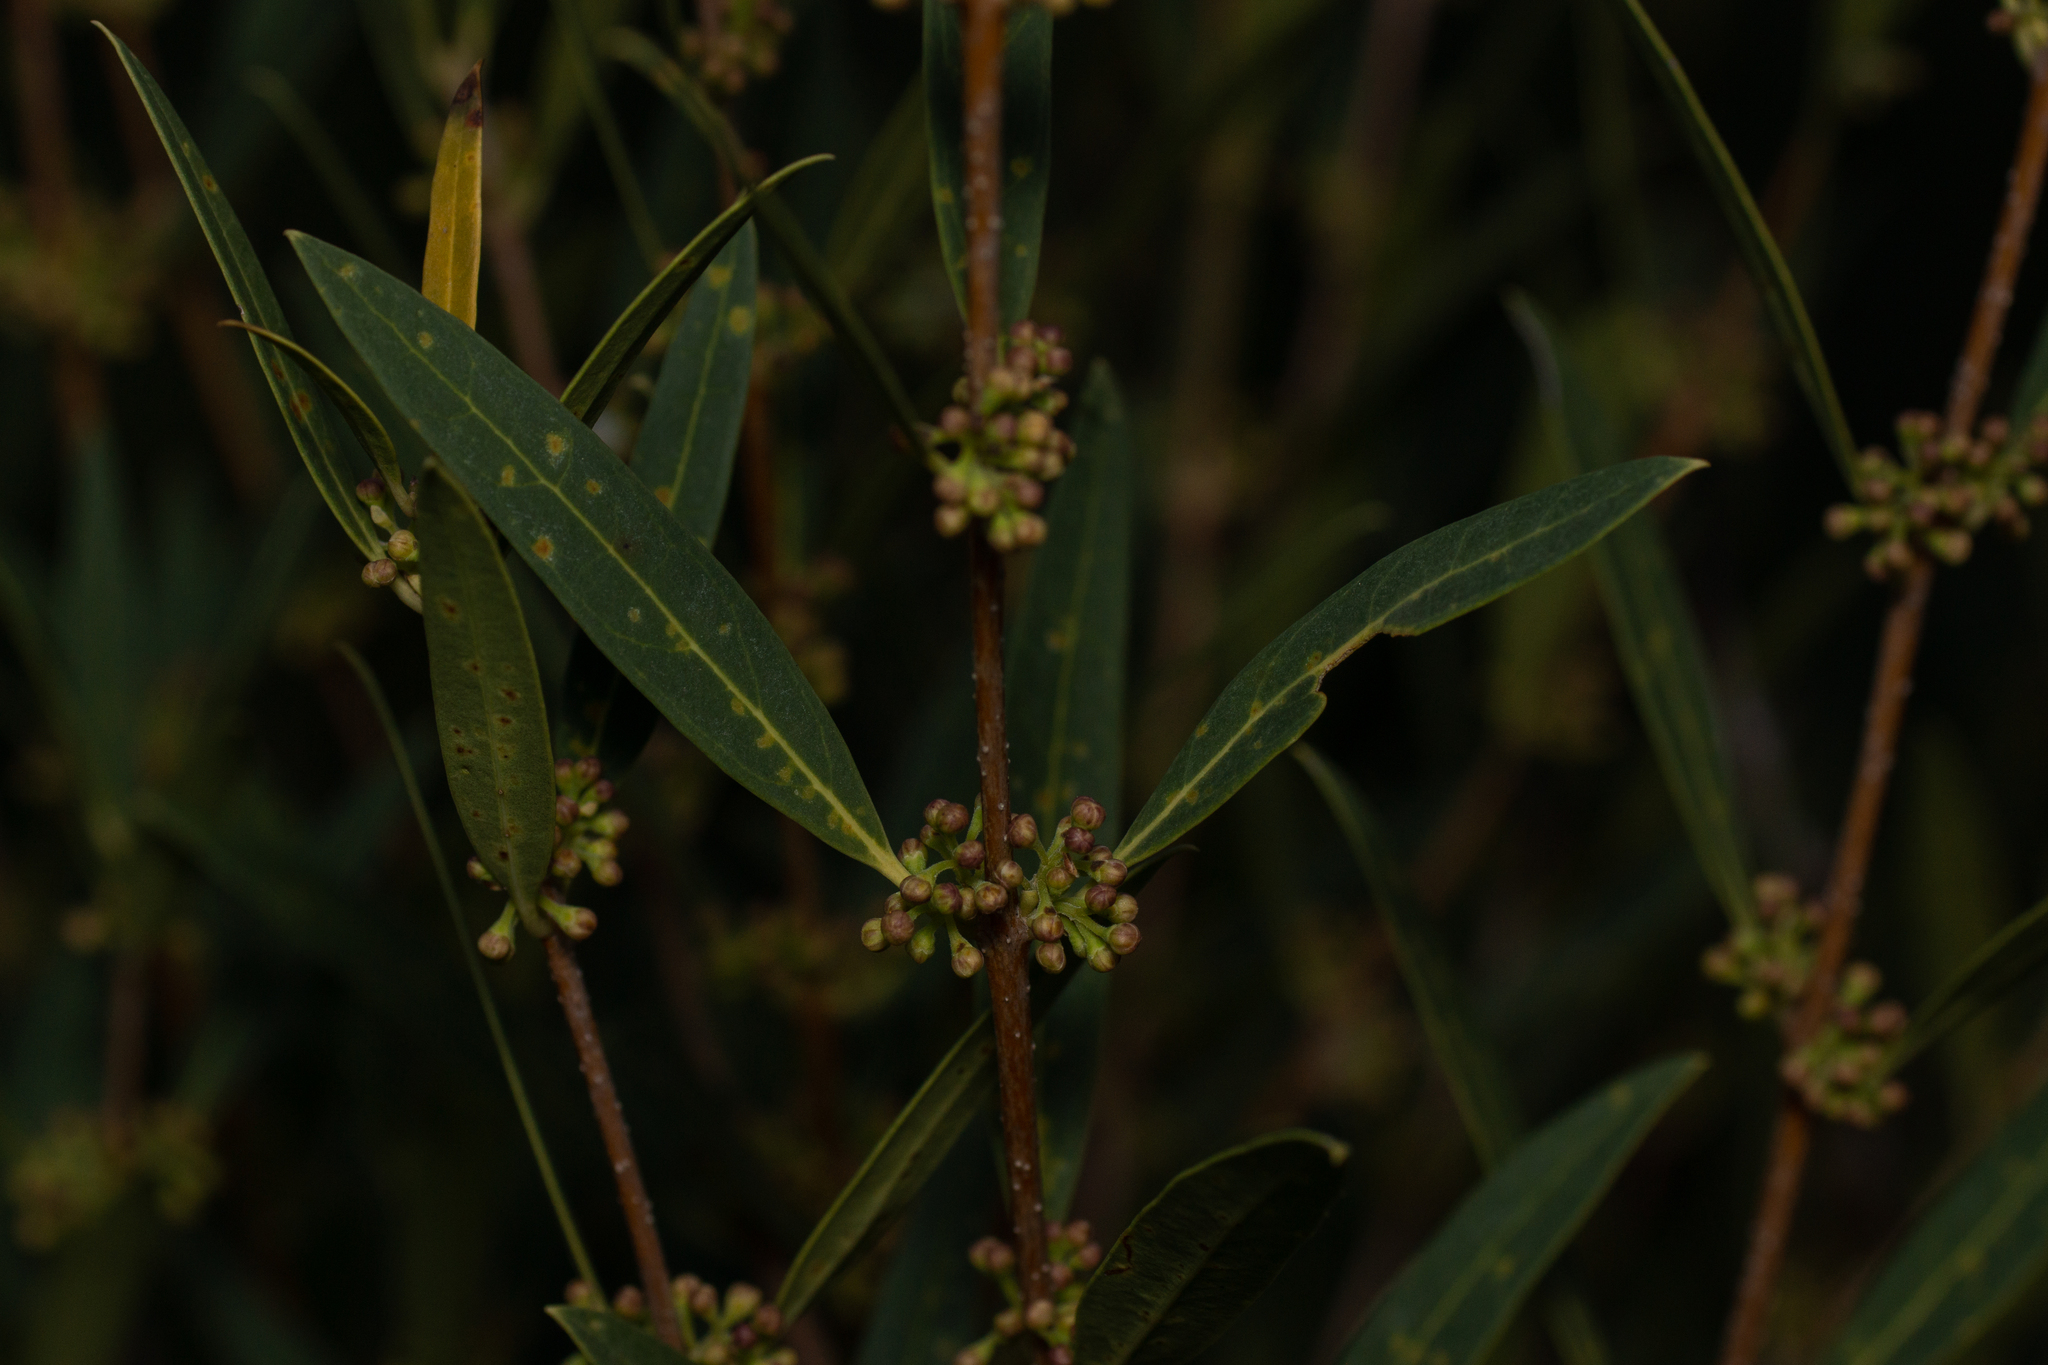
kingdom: Plantae
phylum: Tracheophyta
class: Magnoliopsida
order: Lamiales
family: Oleaceae
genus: Phillyrea
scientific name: Phillyrea angustifolia
